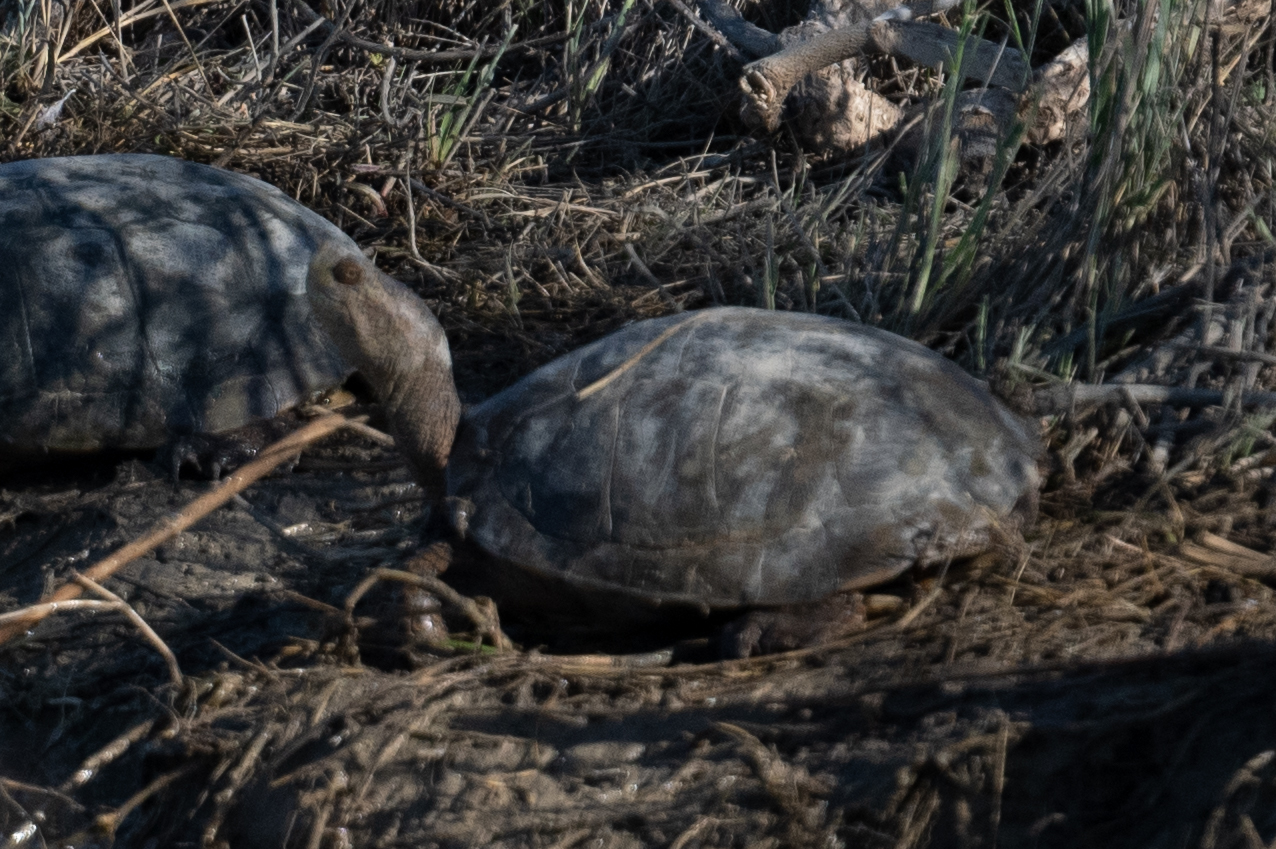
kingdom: Animalia
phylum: Chordata
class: Testudines
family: Emydidae
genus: Actinemys
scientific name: Actinemys marmorata
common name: Western pond turtle
